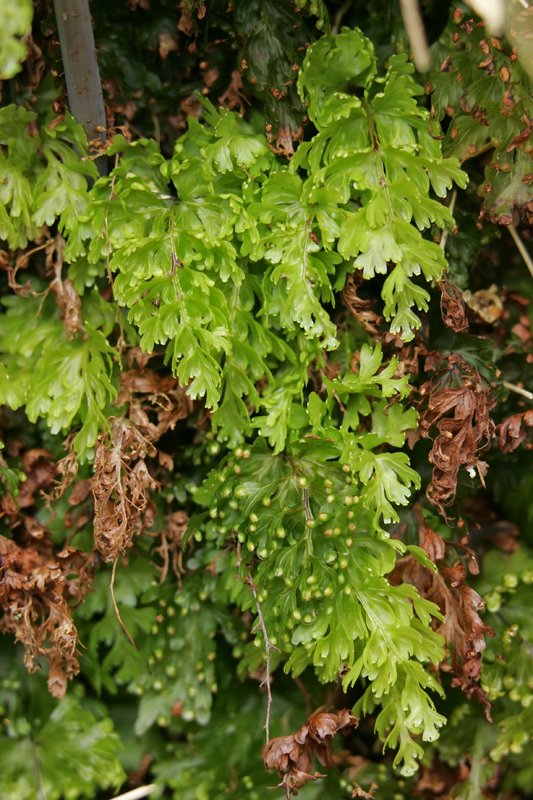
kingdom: Plantae
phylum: Tracheophyta
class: Polypodiopsida
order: Hymenophyllales
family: Hymenophyllaceae
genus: Hymenophyllum
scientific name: Hymenophyllum flabellatum
